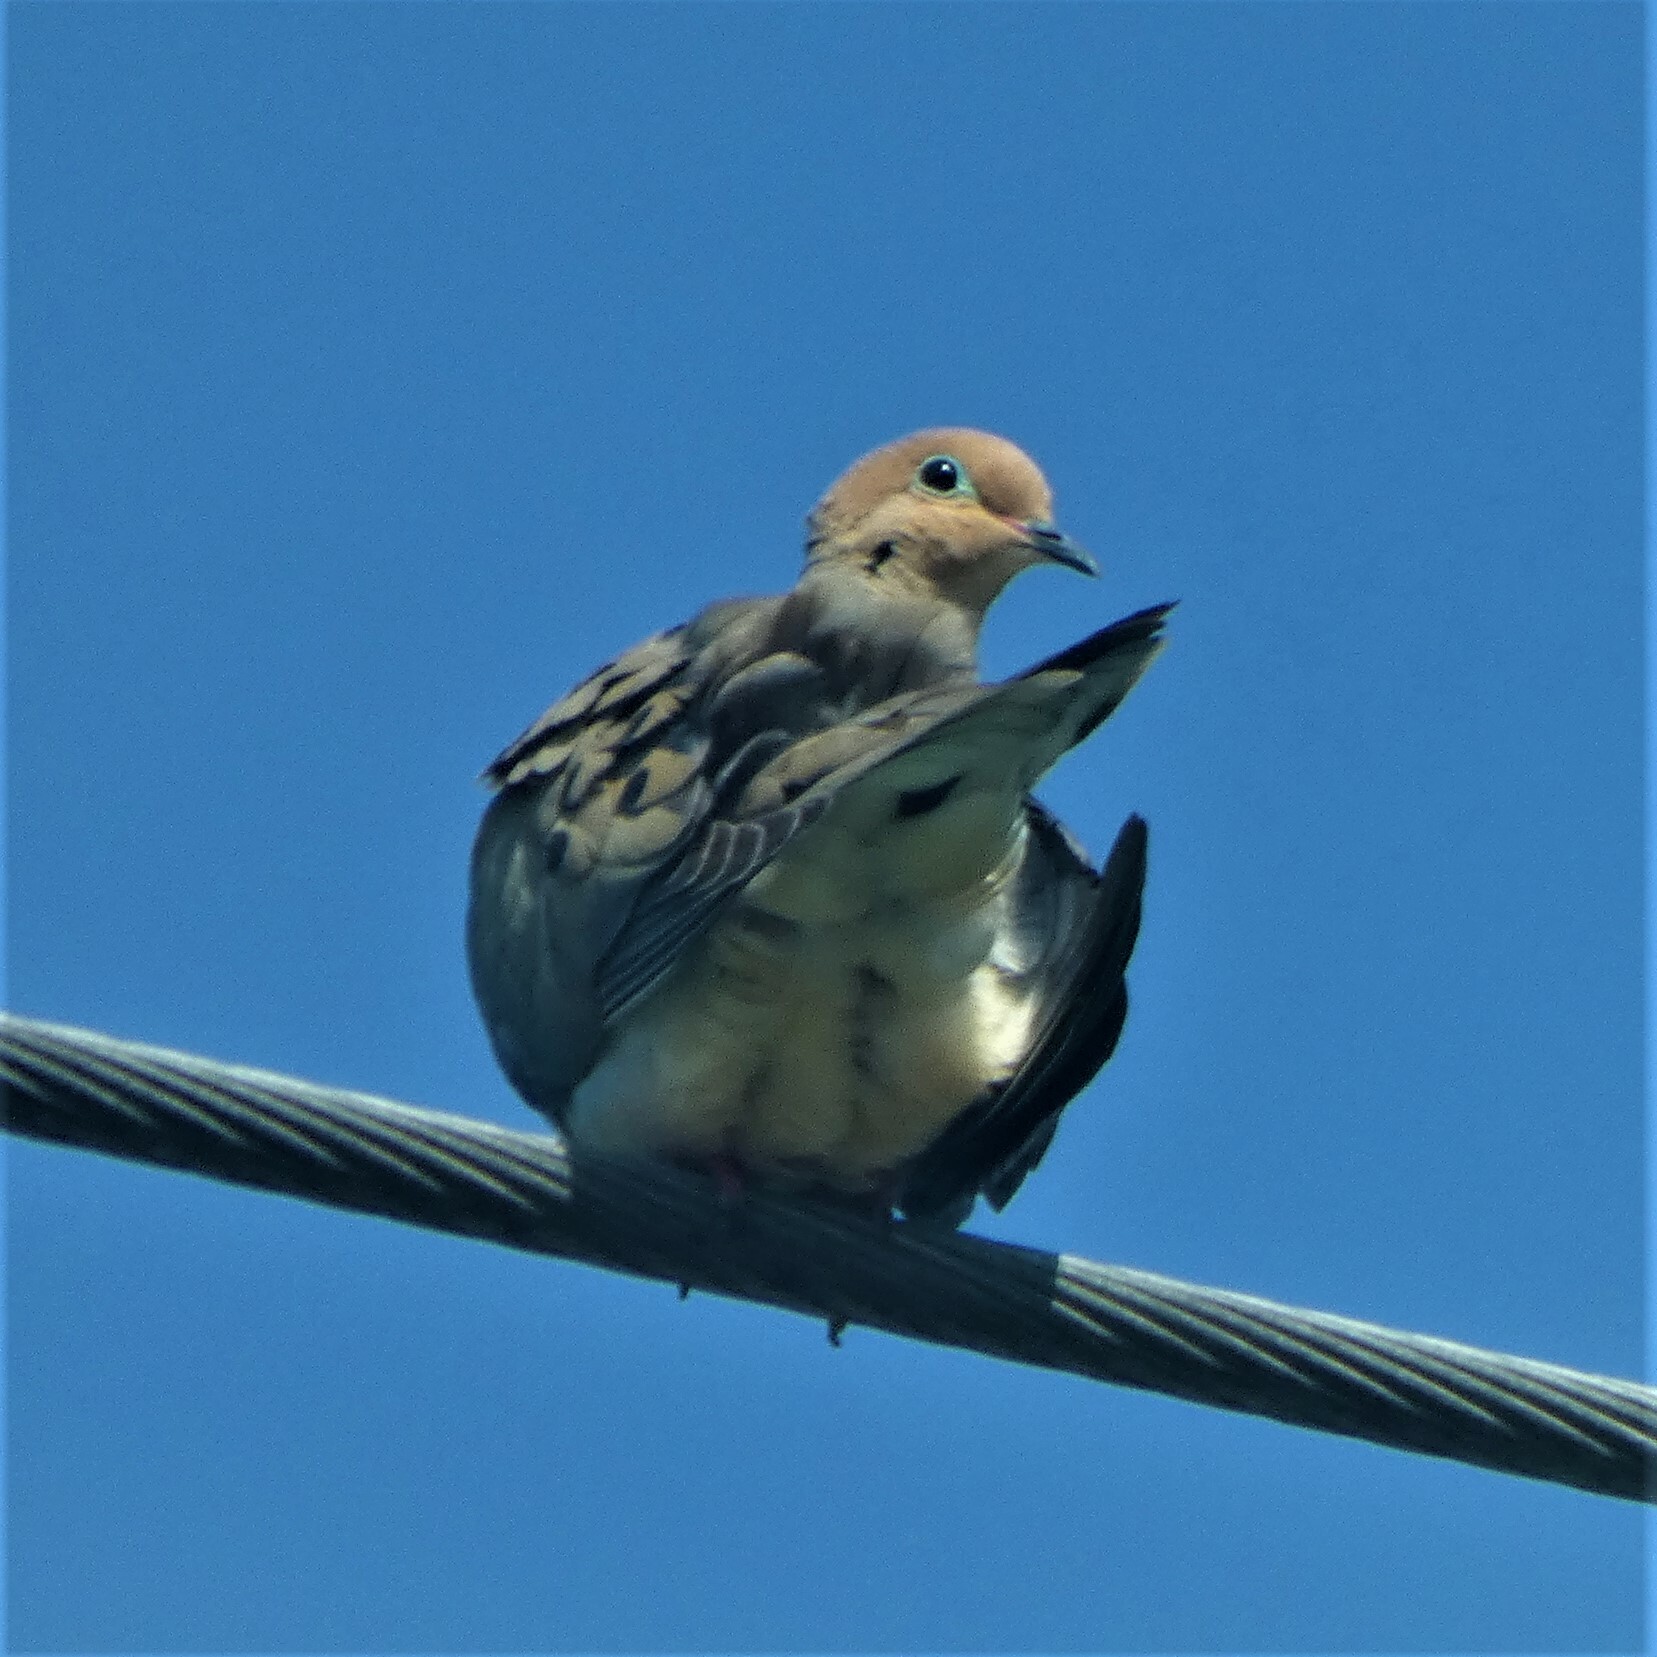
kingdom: Animalia
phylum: Chordata
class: Aves
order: Columbiformes
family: Columbidae
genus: Zenaida
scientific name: Zenaida macroura
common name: Mourning dove
